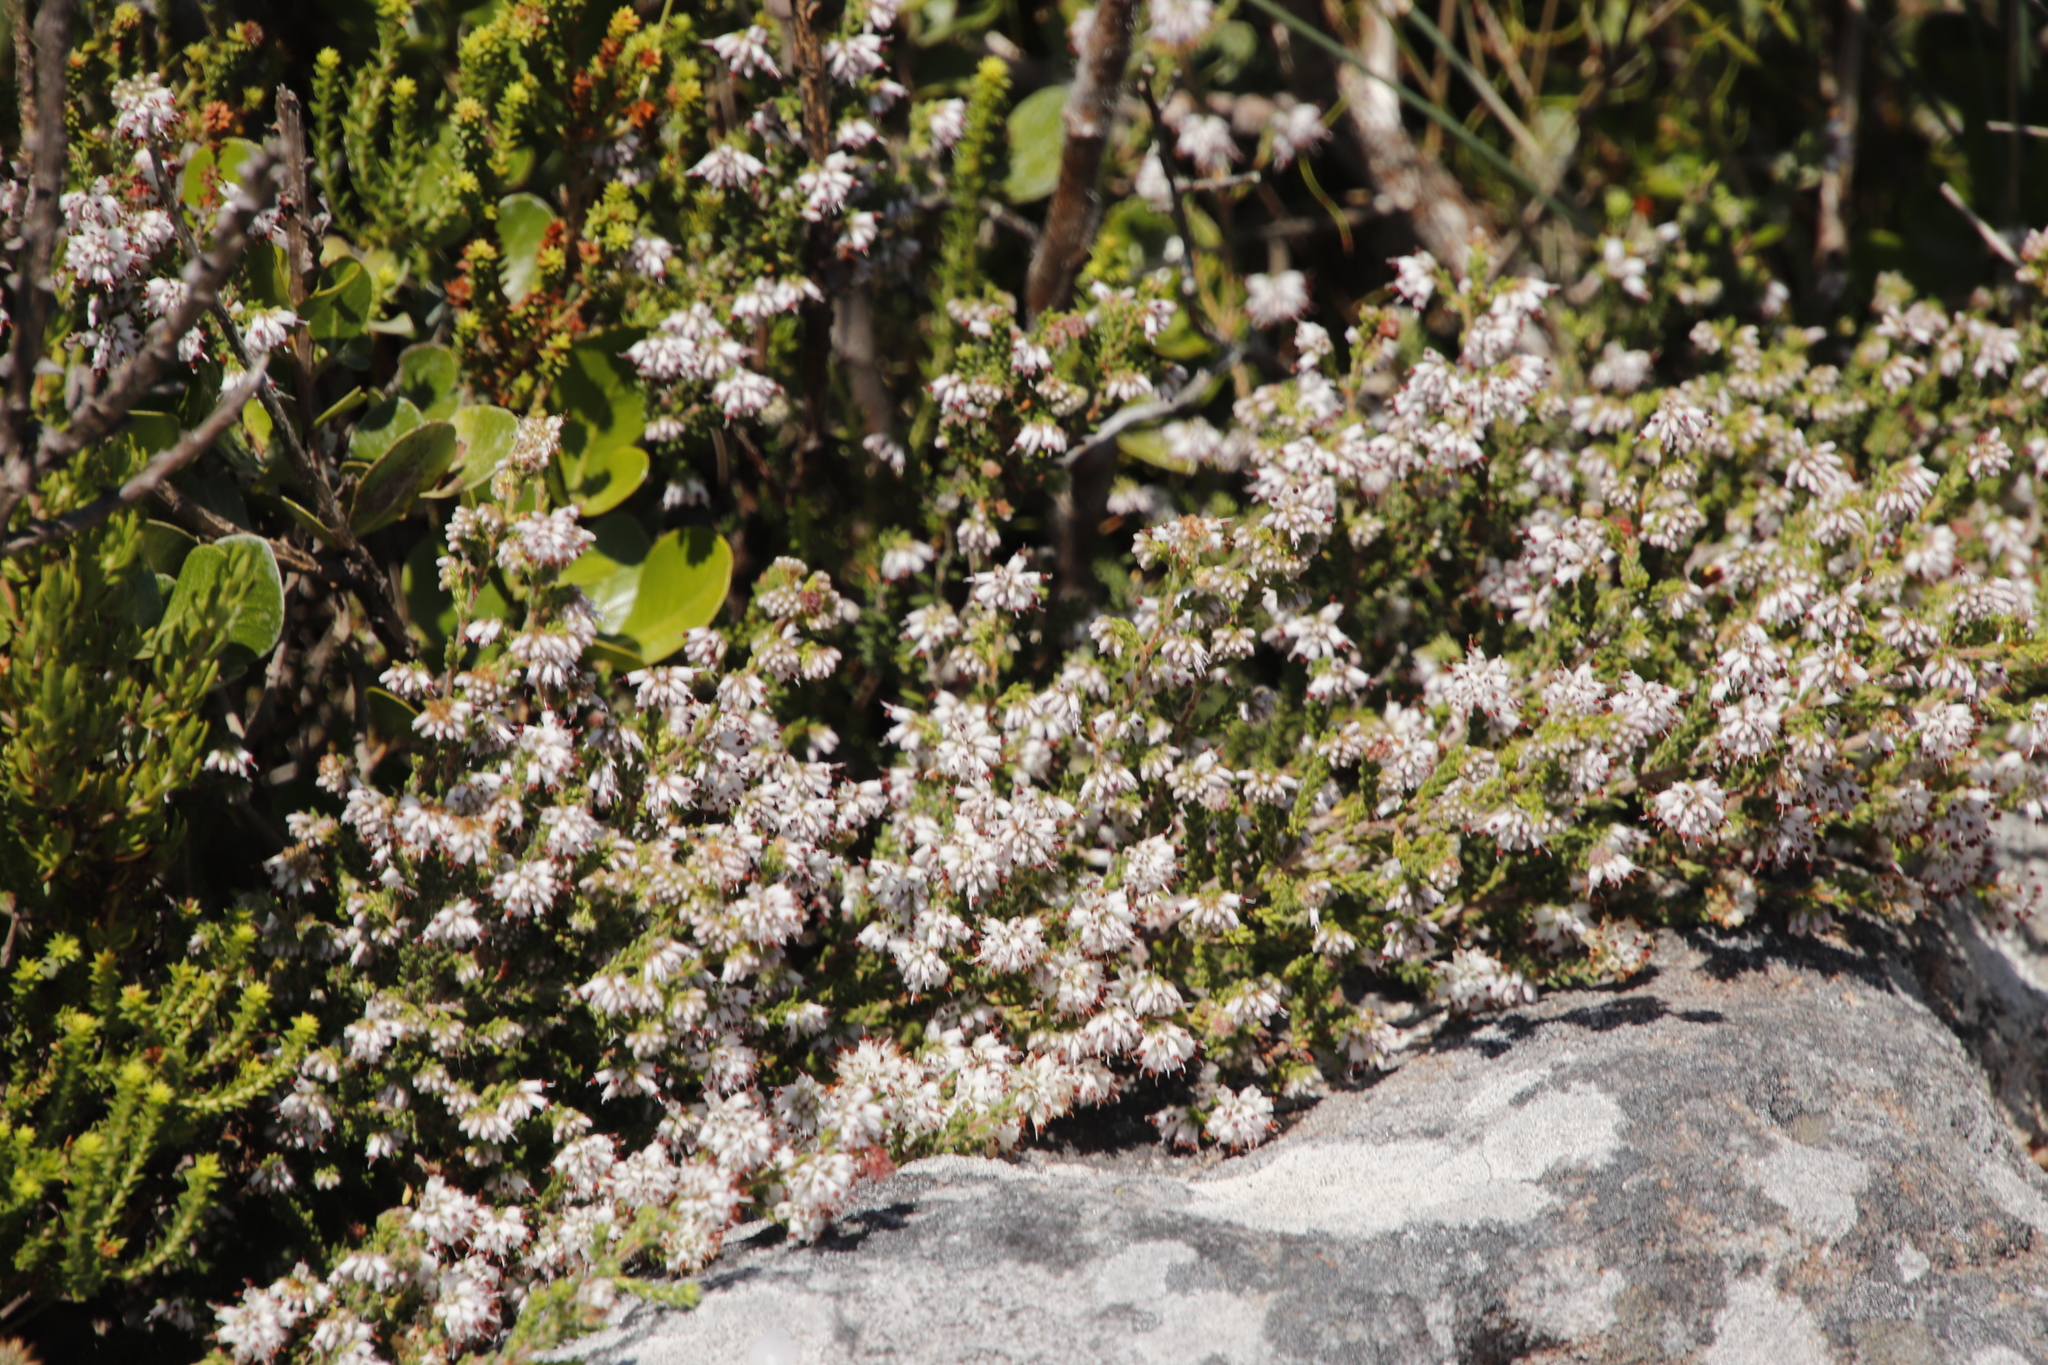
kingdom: Plantae
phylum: Tracheophyta
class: Magnoliopsida
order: Ericales
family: Ericaceae
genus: Erica
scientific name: Erica ericoides
